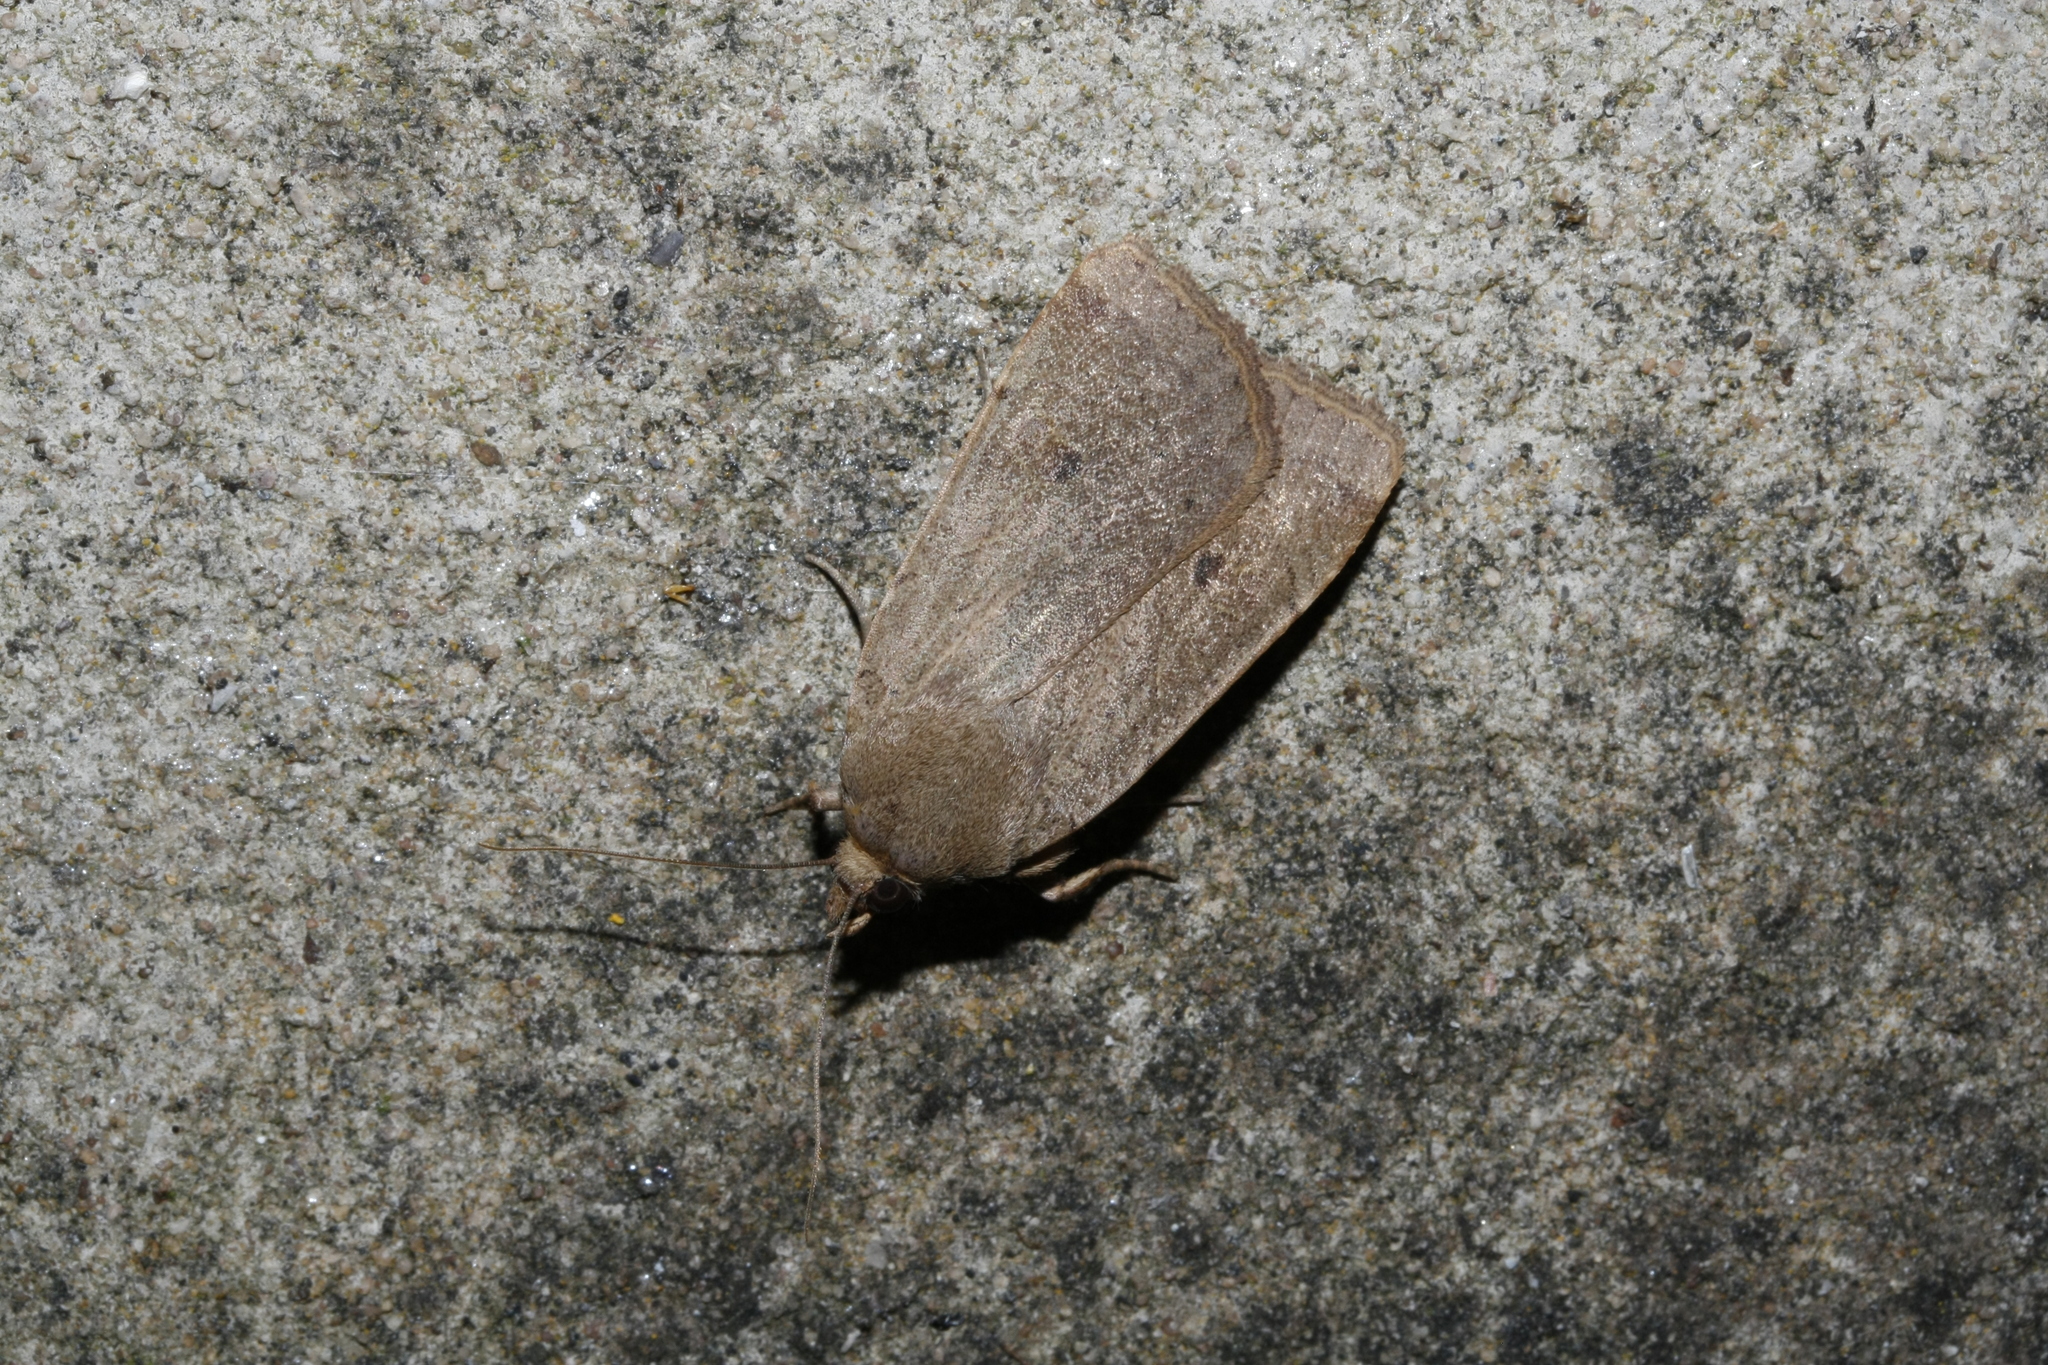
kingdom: Animalia
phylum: Arthropoda
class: Insecta
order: Lepidoptera
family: Noctuidae
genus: Noctua
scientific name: Noctua comes
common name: Lesser yellow underwing
